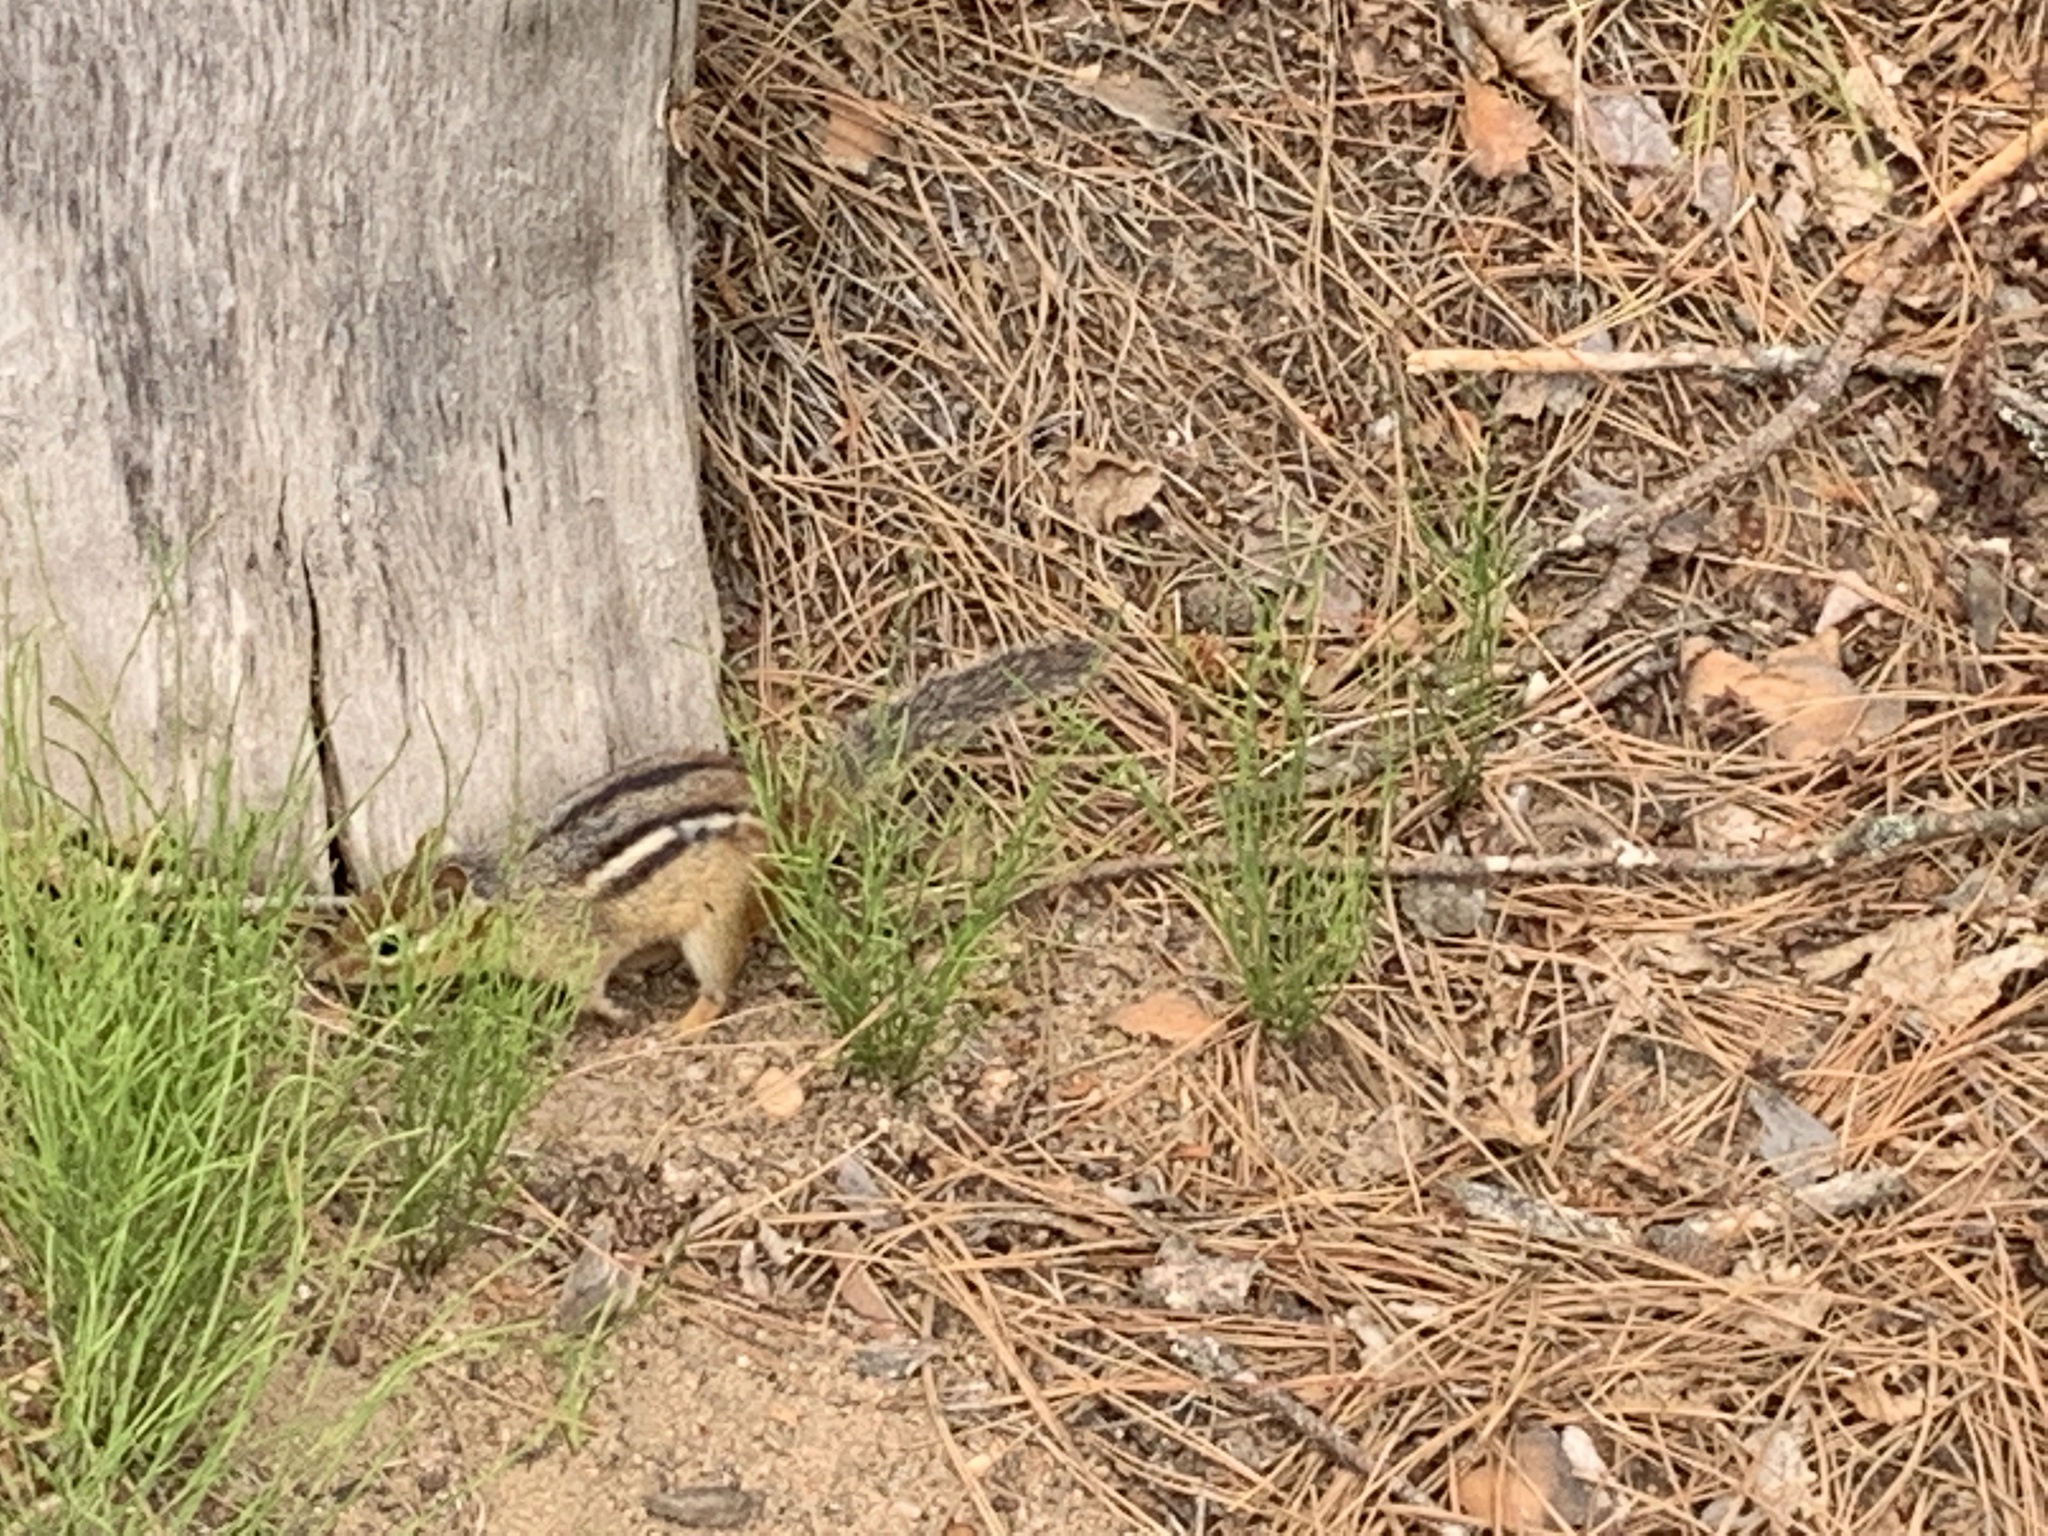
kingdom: Animalia
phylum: Chordata
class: Mammalia
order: Rodentia
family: Sciuridae
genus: Tamias
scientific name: Tamias striatus
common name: Eastern chipmunk
